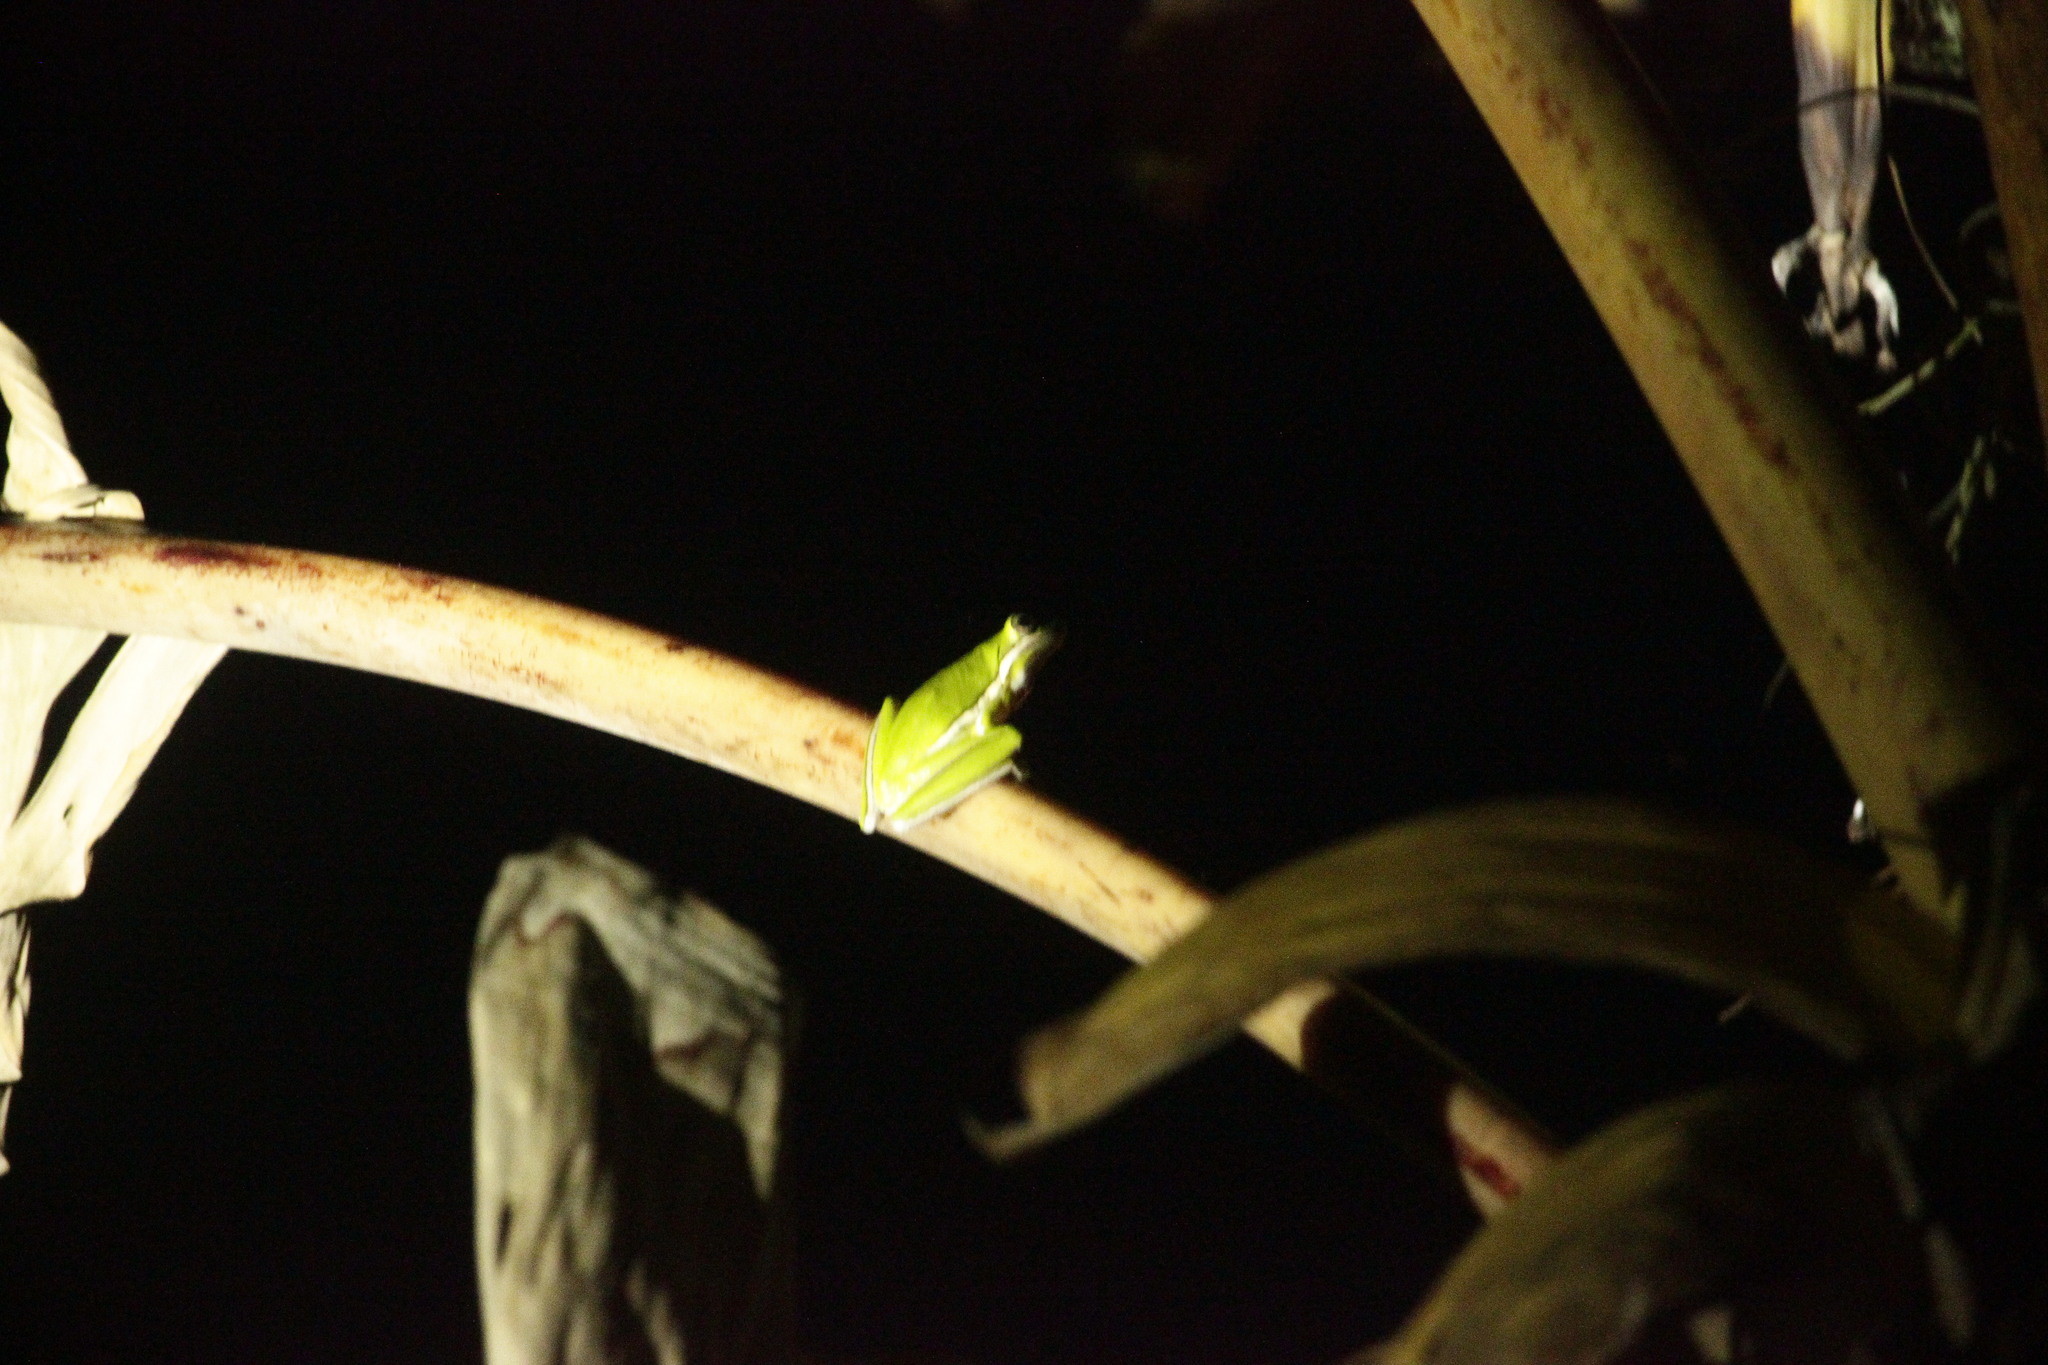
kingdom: Animalia
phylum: Chordata
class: Amphibia
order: Anura
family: Hylidae
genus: Dryophytes
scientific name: Dryophytes cinereus
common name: Green treefrog
